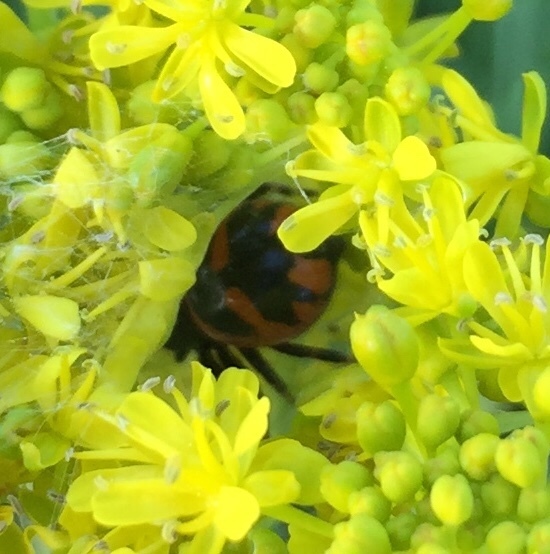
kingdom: Animalia
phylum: Arthropoda
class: Arachnida
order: Araneae
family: Thomisidae
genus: Synema
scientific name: Synema globosum
